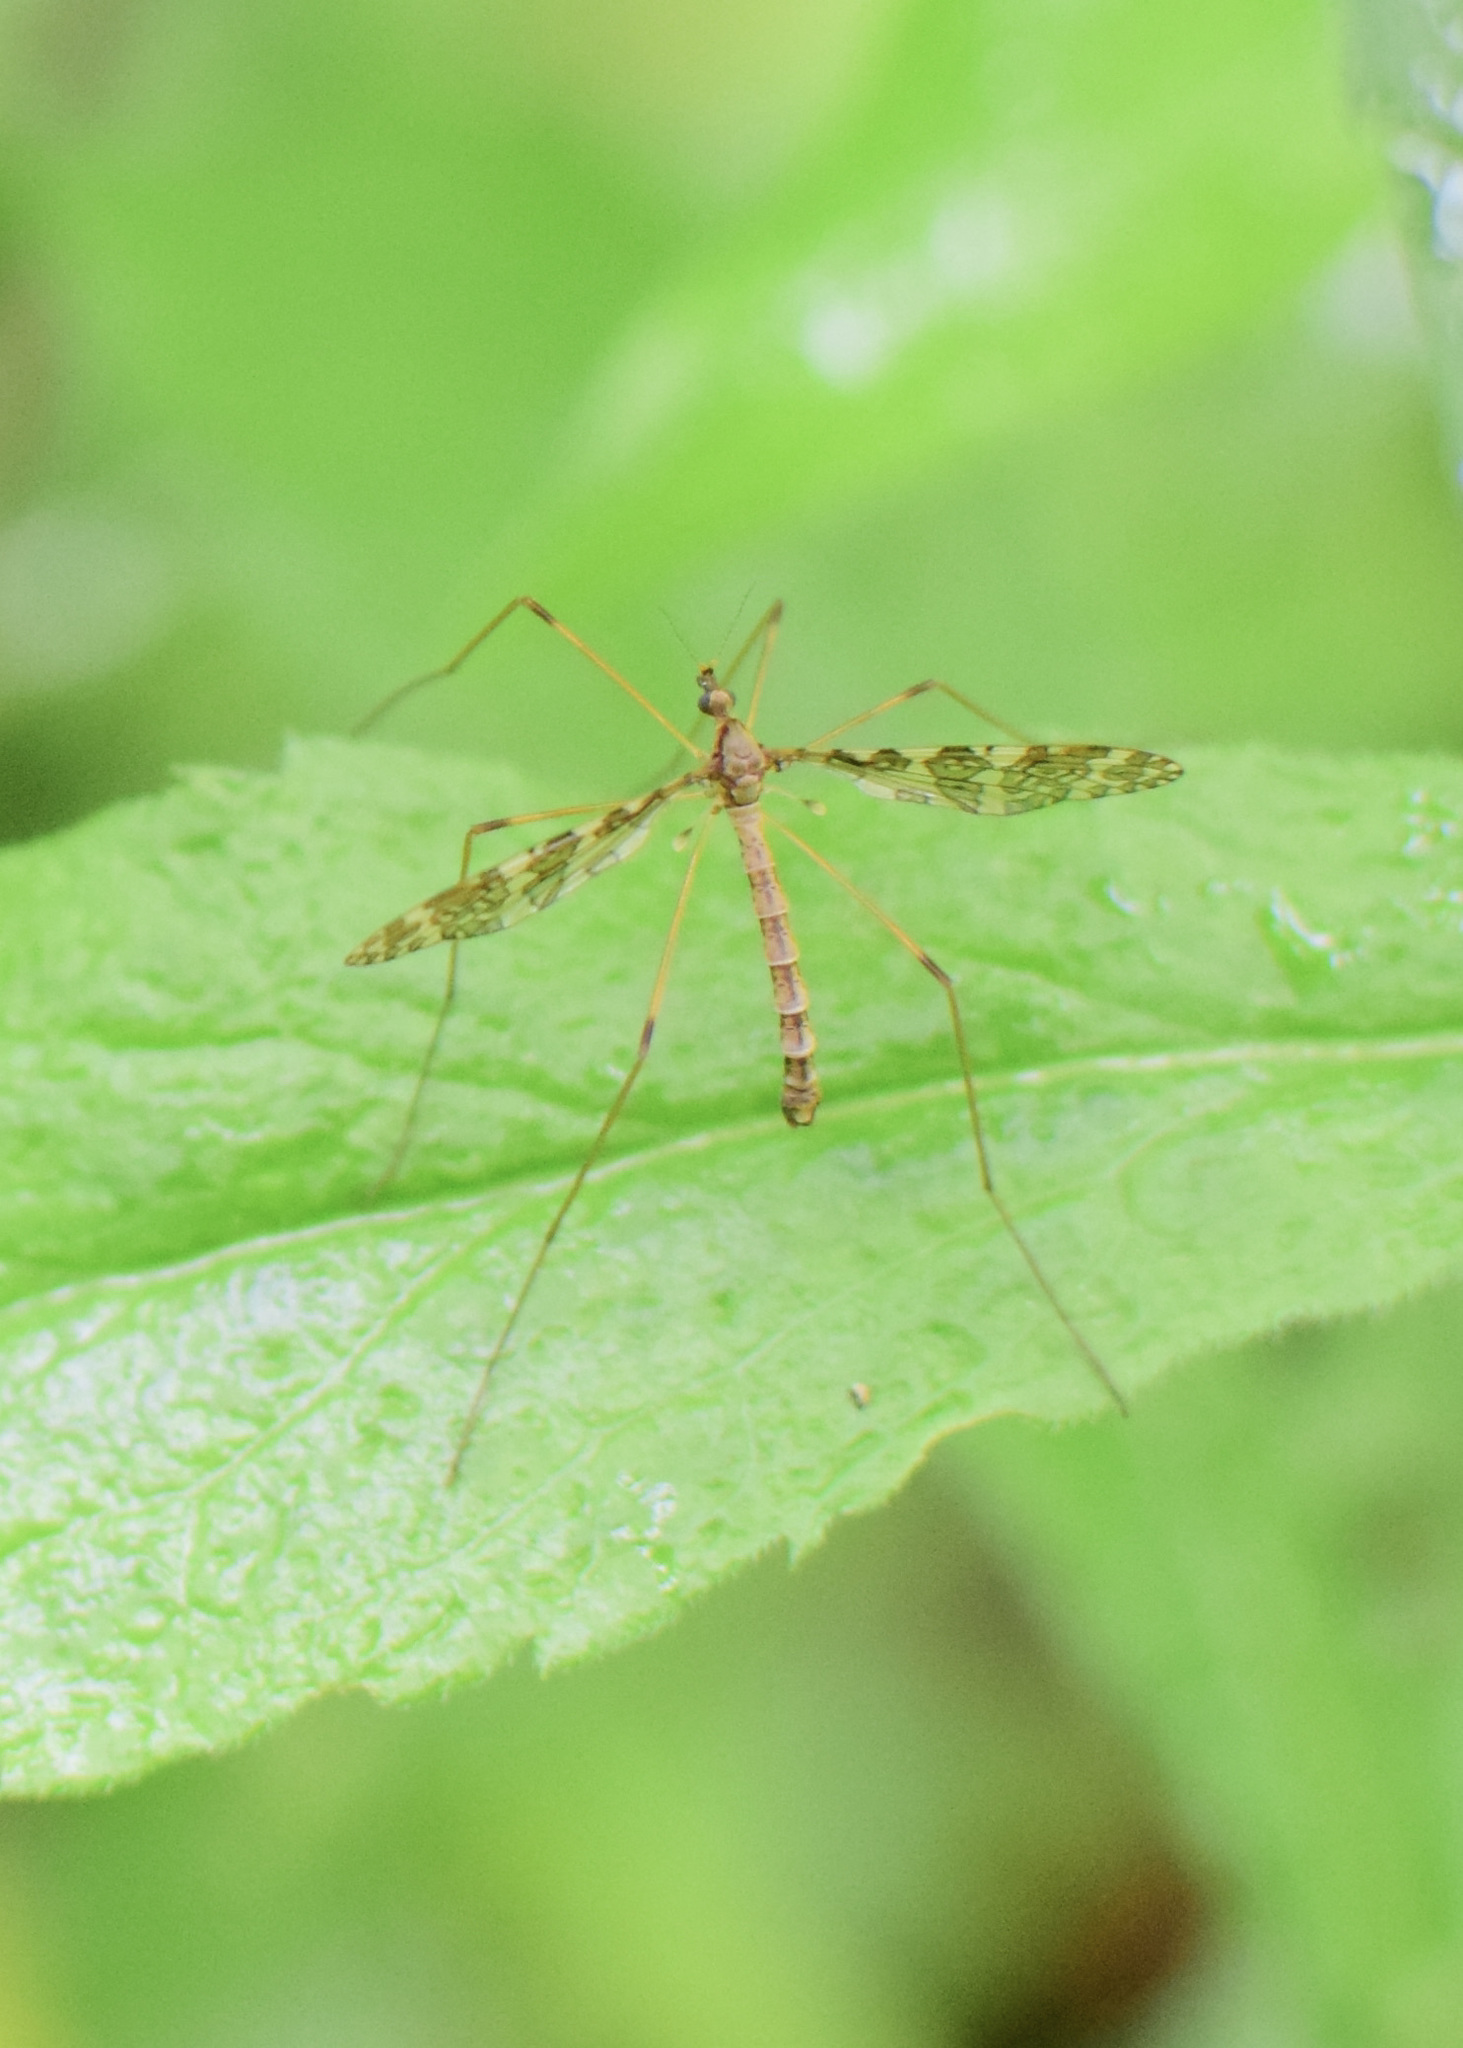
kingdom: Animalia
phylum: Arthropoda
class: Insecta
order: Diptera
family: Limoniidae
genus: Epiphragma
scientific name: Epiphragma fasciapenne
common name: Band-winged crane fly
